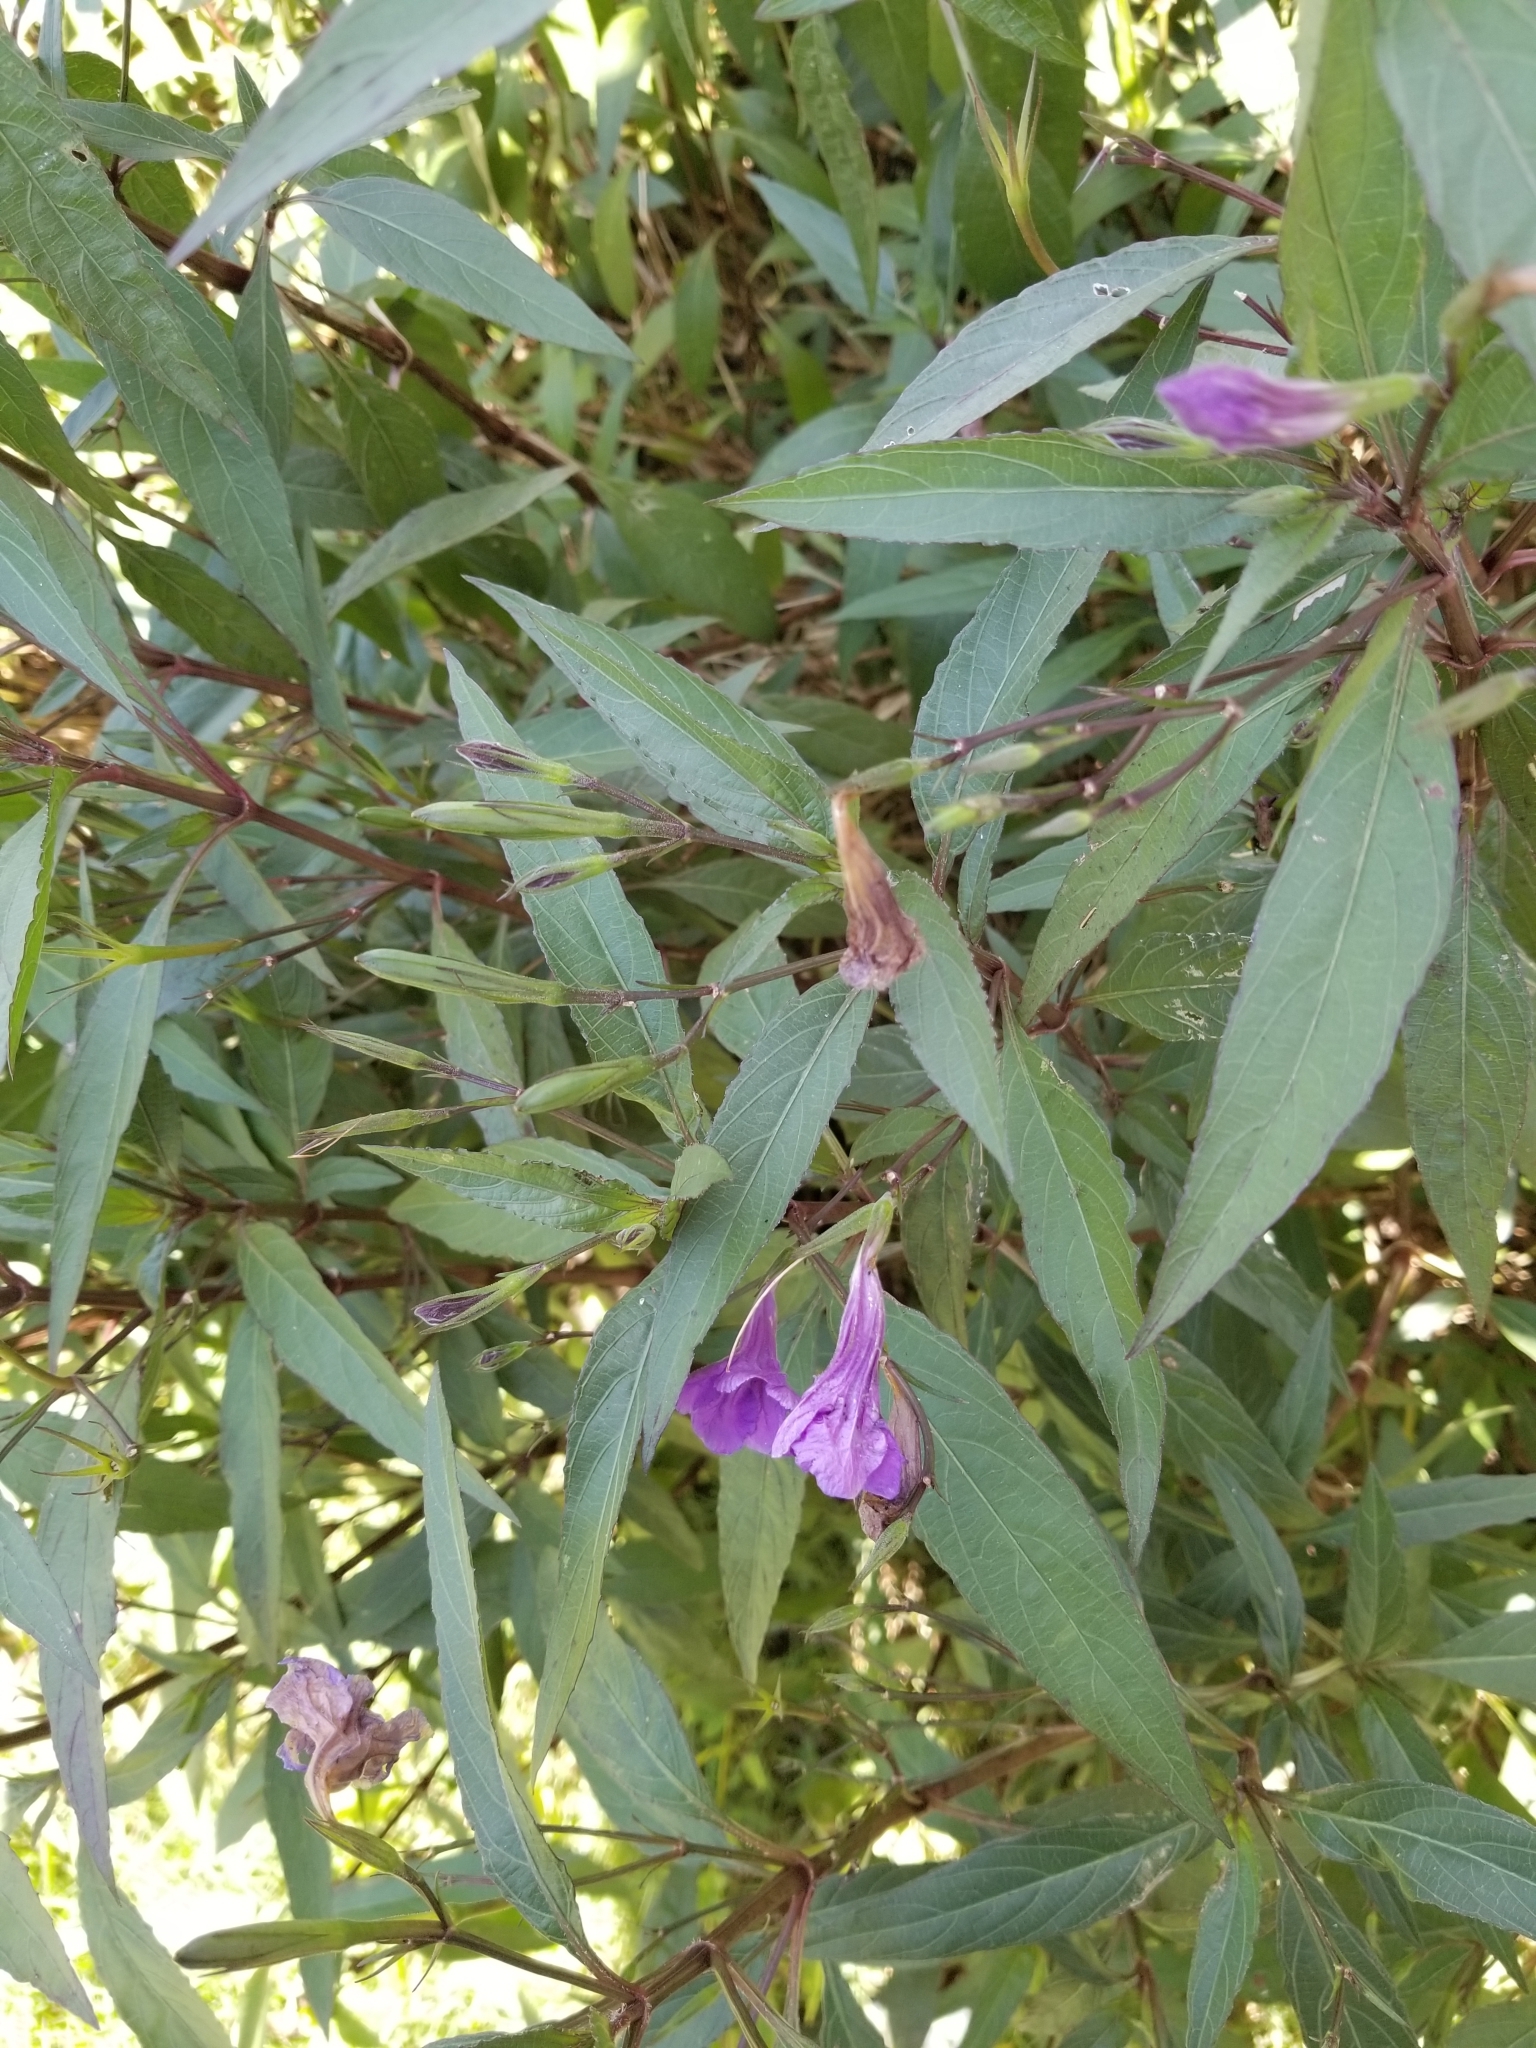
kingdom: Plantae
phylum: Tracheophyta
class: Magnoliopsida
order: Lamiales
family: Acanthaceae
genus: Ruellia
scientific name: Ruellia simplex
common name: Softseed wild petunia
